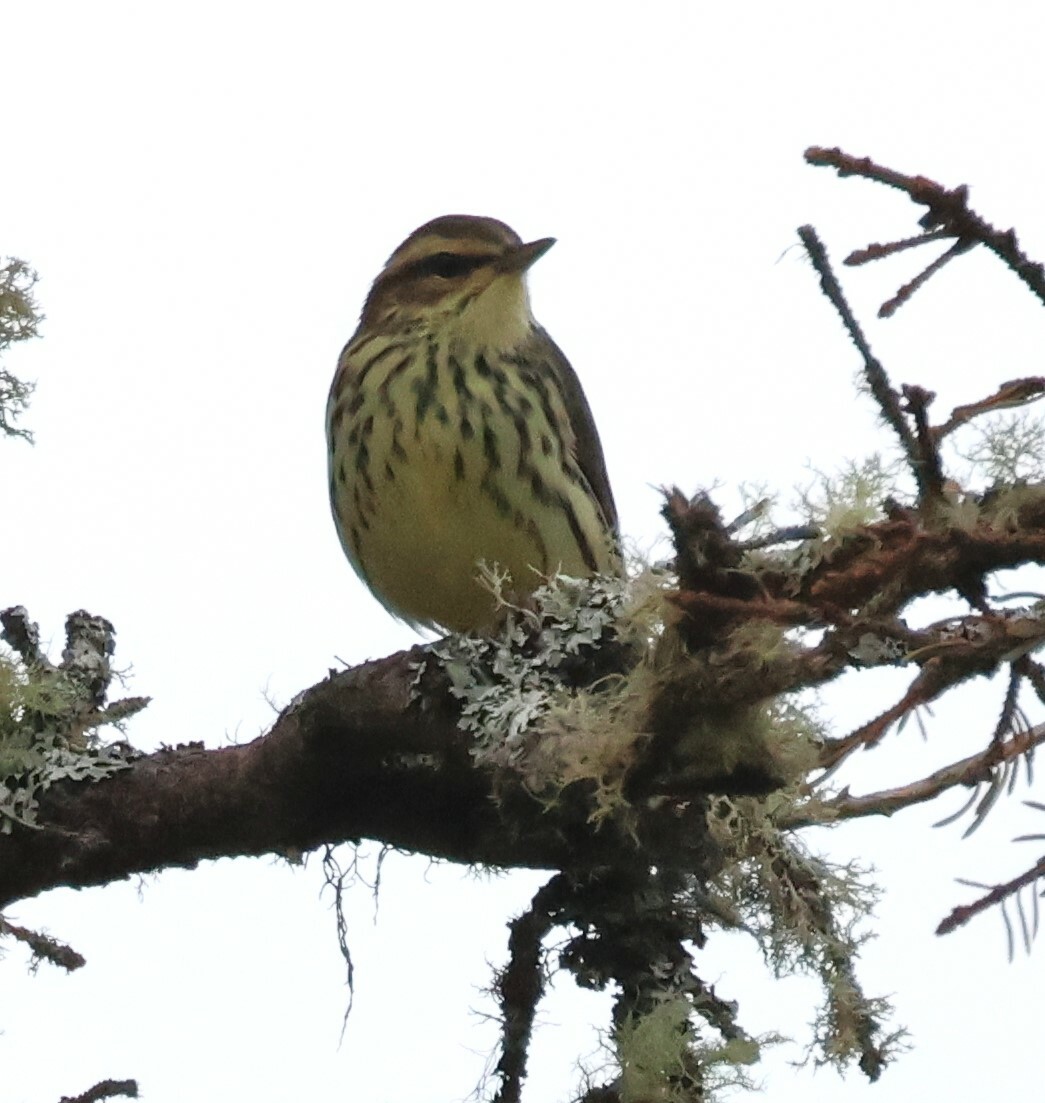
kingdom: Animalia
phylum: Chordata
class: Aves
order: Passeriformes
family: Parulidae
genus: Parkesia
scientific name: Parkesia noveboracensis
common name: Northern waterthrush
